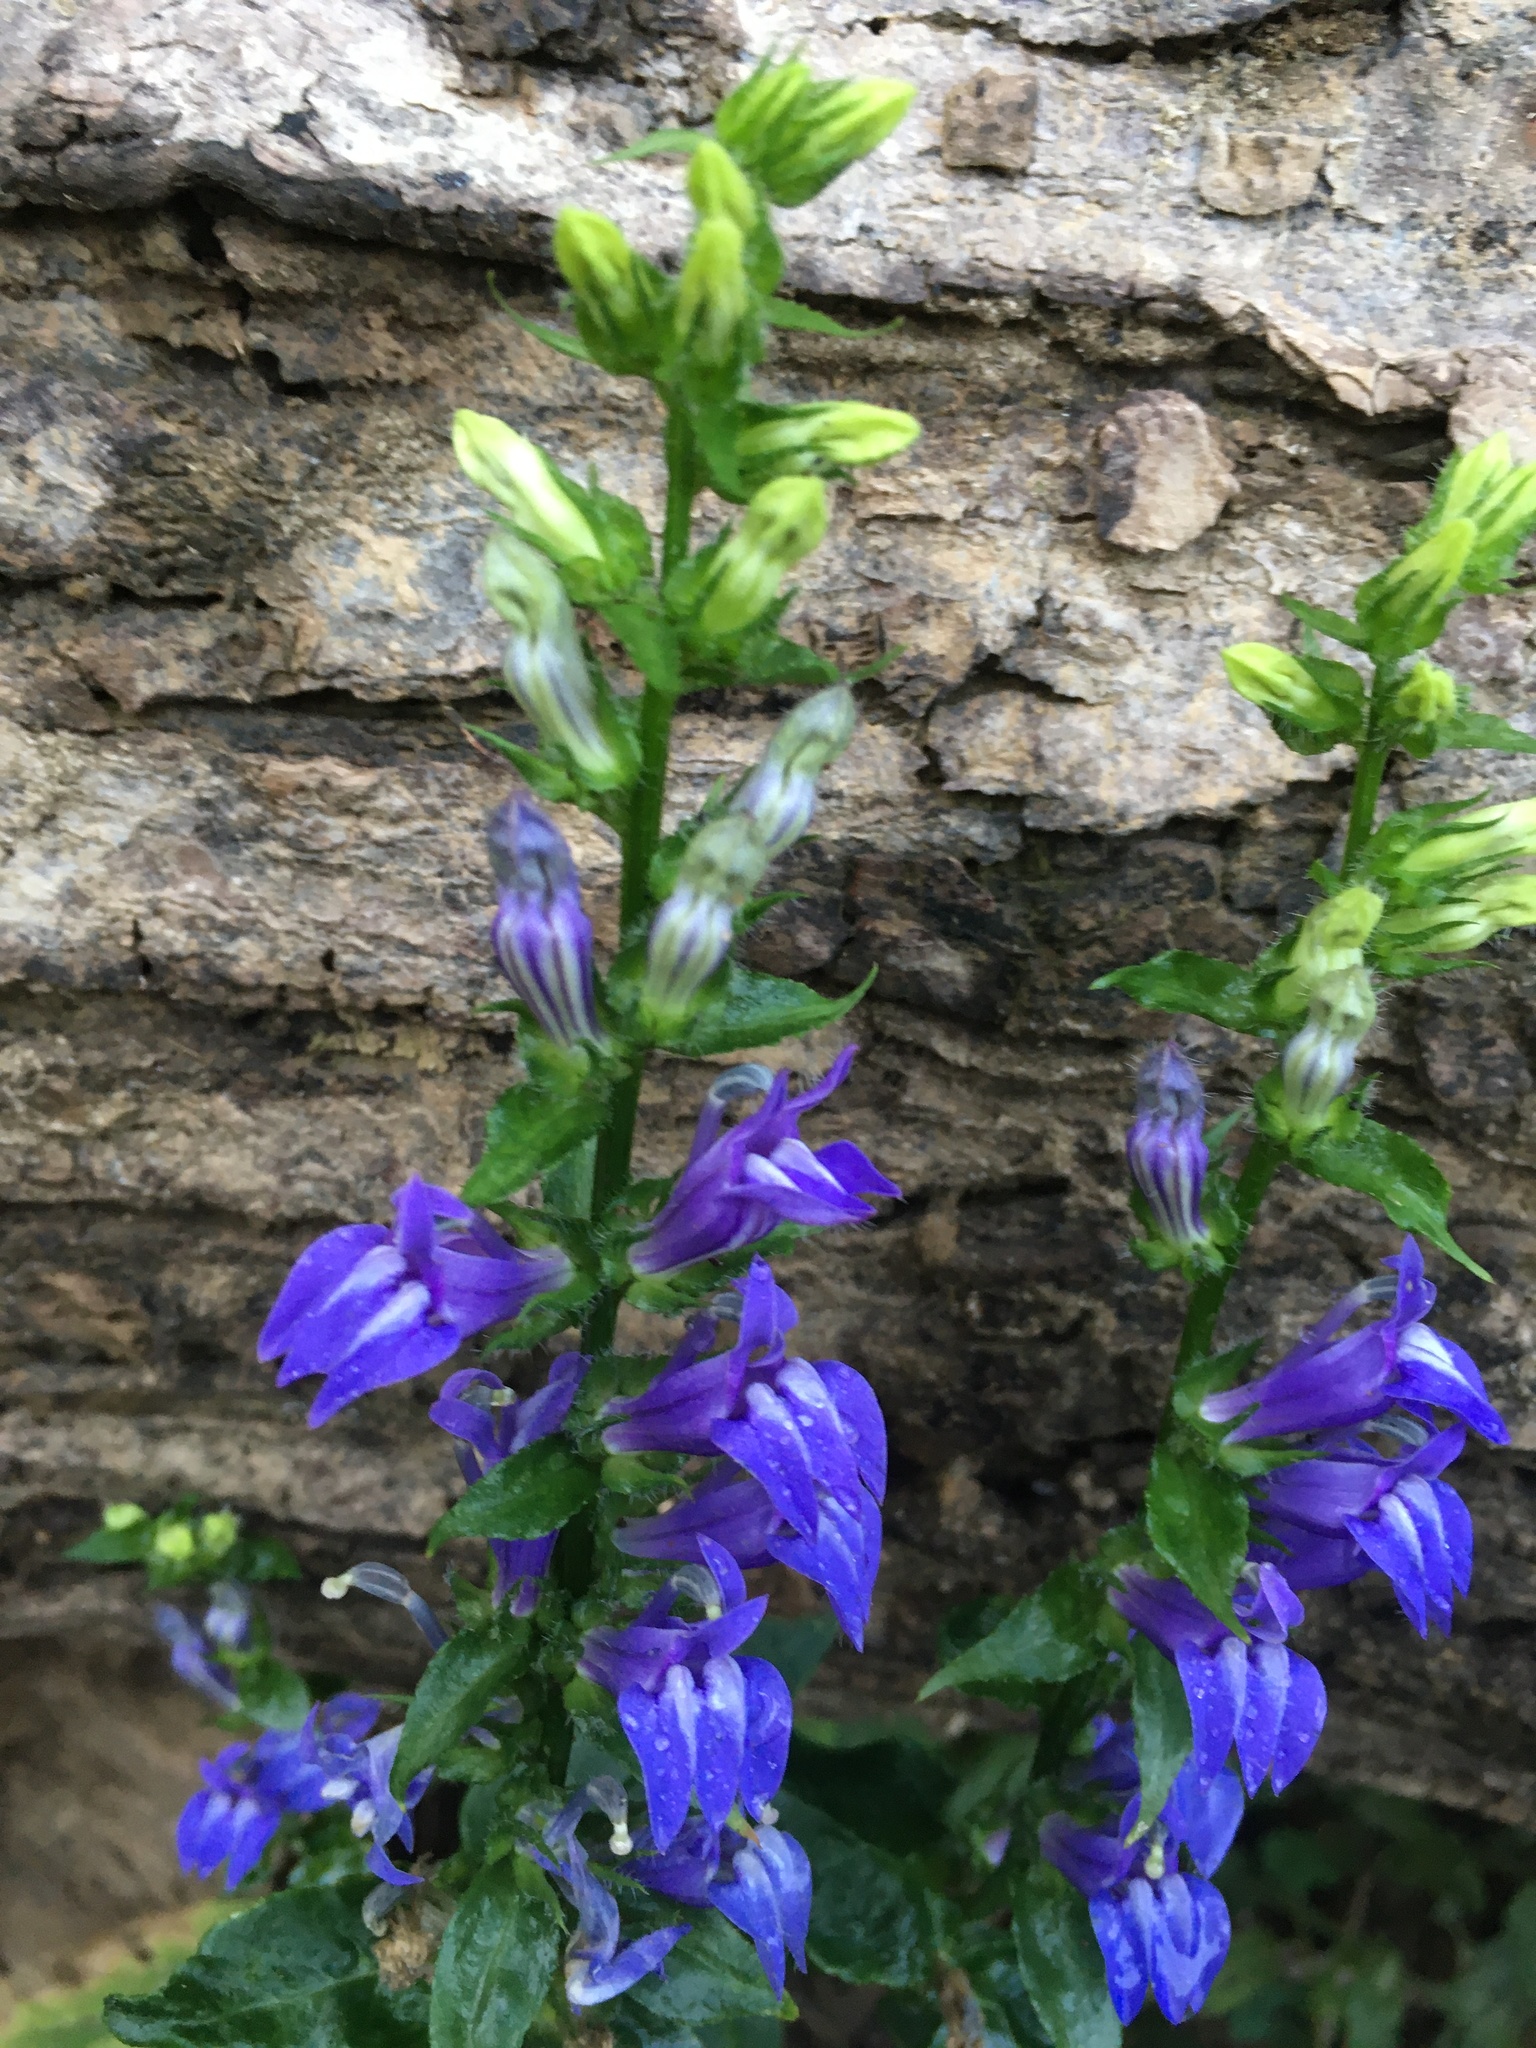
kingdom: Plantae
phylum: Tracheophyta
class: Magnoliopsida
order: Asterales
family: Campanulaceae
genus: Lobelia
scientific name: Lobelia siphilitica
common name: Great lobelia
